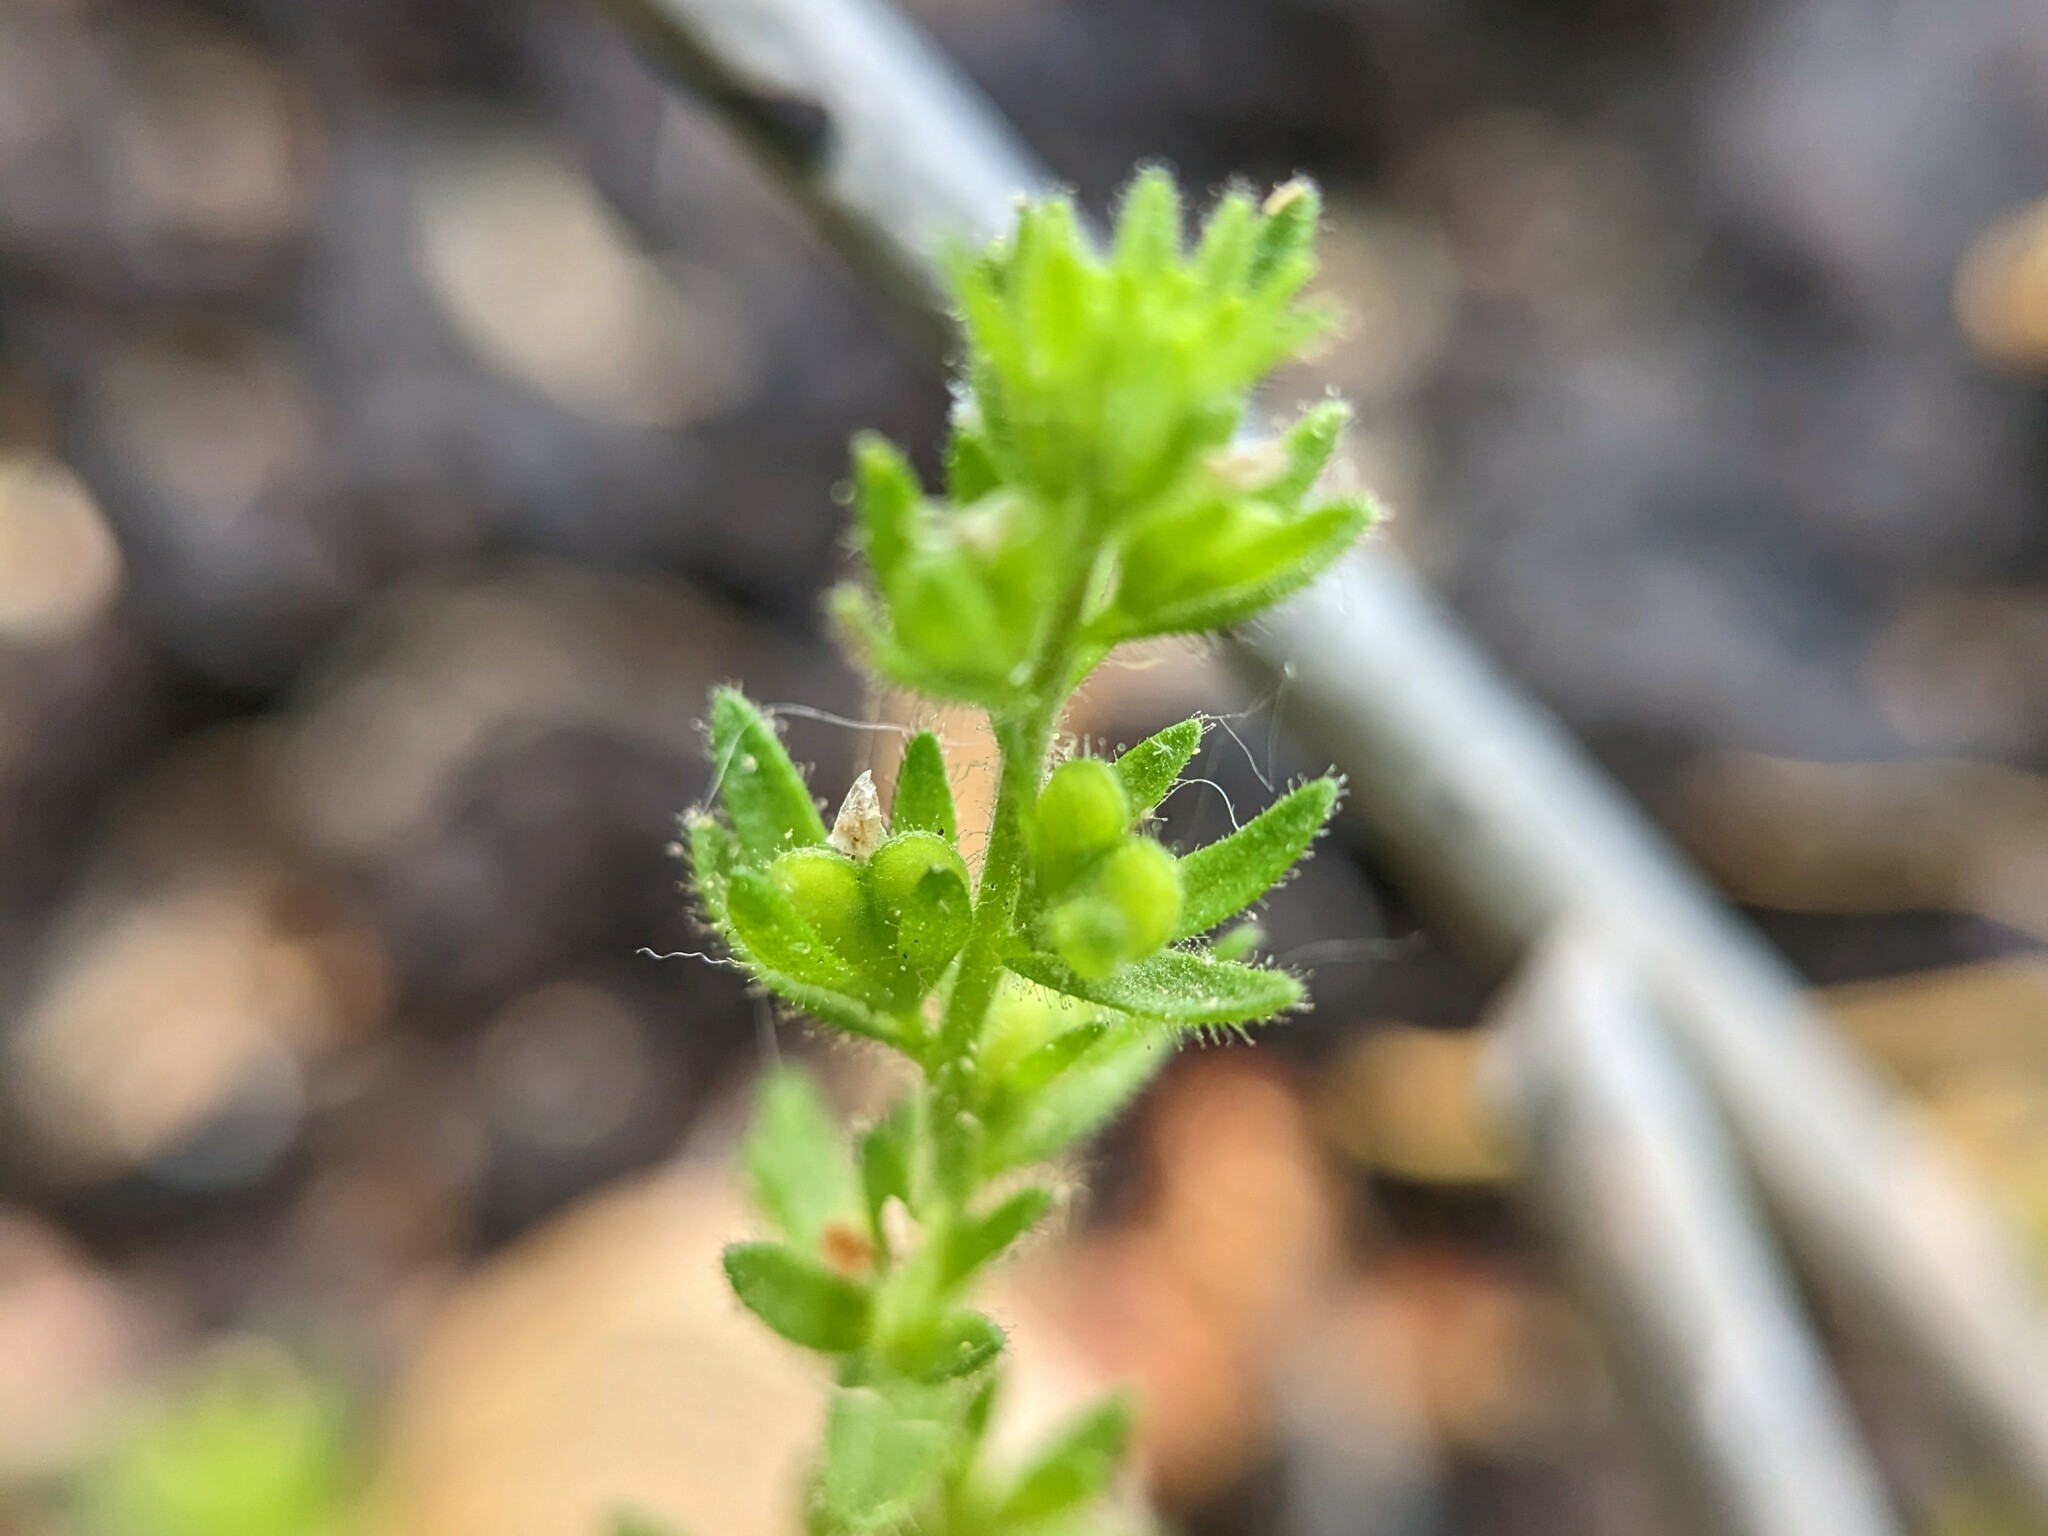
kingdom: Plantae
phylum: Tracheophyta
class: Magnoliopsida
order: Lamiales
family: Plantaginaceae
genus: Veronica
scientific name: Veronica arvensis
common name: Corn speedwell
